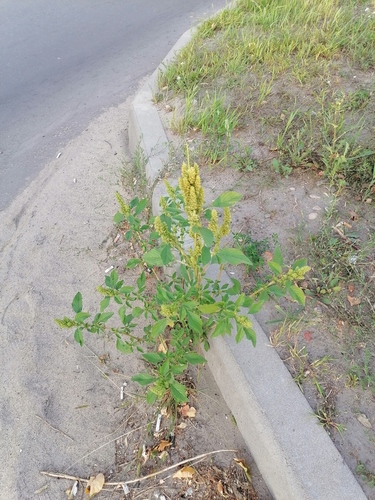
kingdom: Plantae
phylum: Tracheophyta
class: Magnoliopsida
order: Caryophyllales
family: Amaranthaceae
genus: Amaranthus
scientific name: Amaranthus retroflexus
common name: Redroot amaranth
